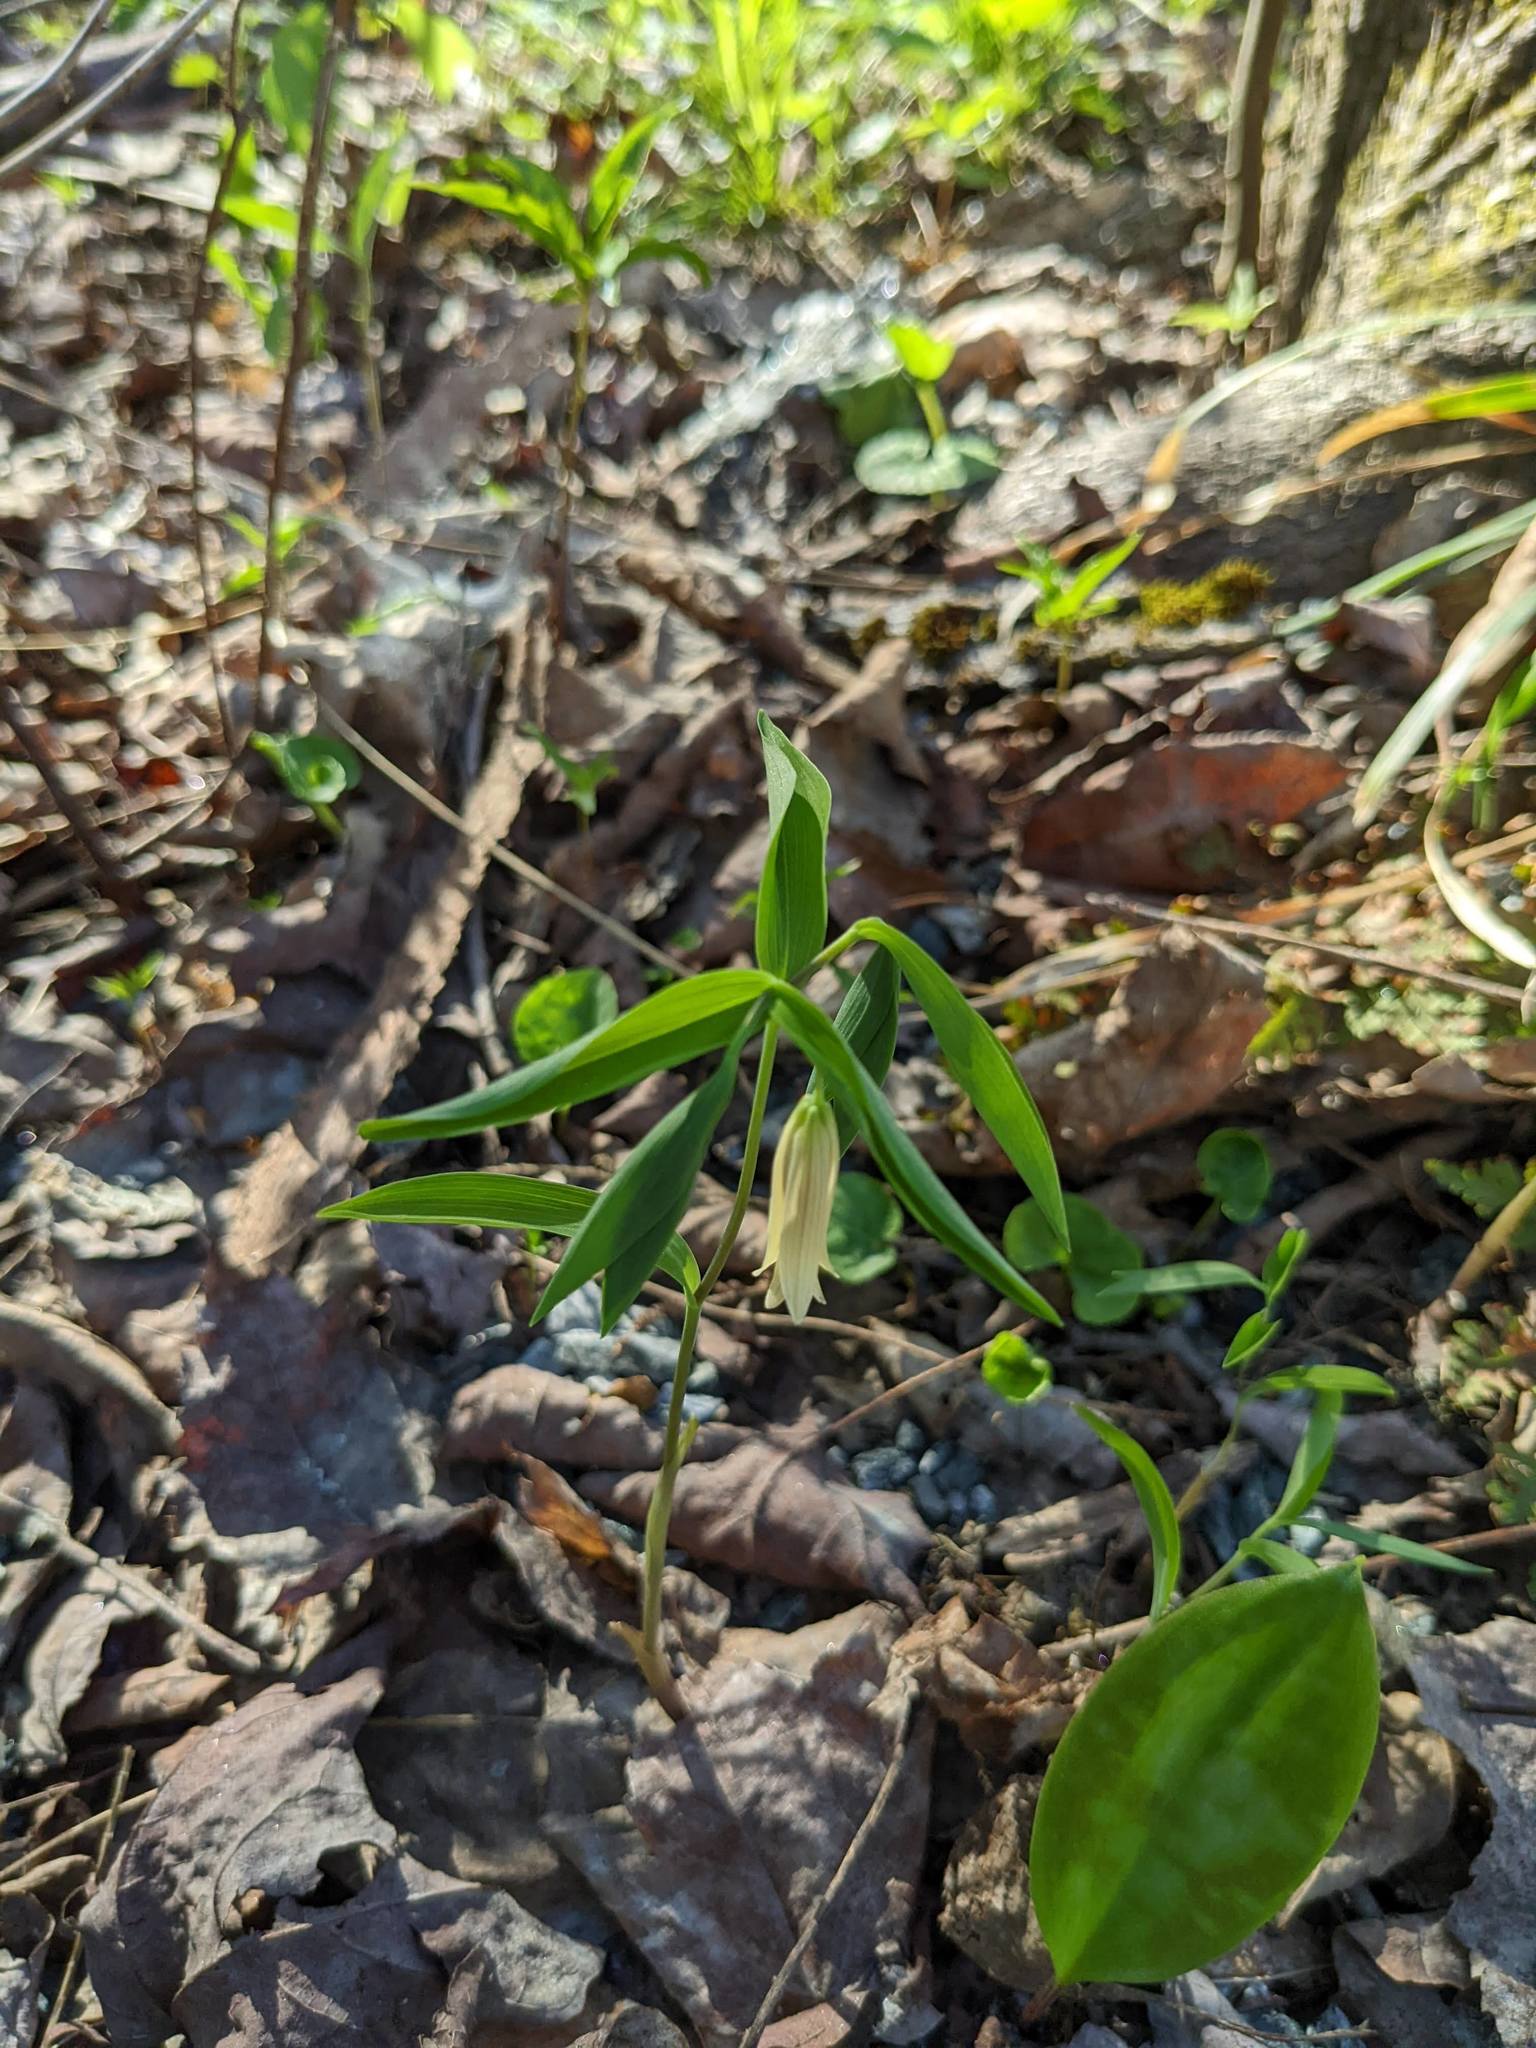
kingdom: Plantae
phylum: Tracheophyta
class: Liliopsida
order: Liliales
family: Colchicaceae
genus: Uvularia
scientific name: Uvularia sessilifolia
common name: Straw-lily
